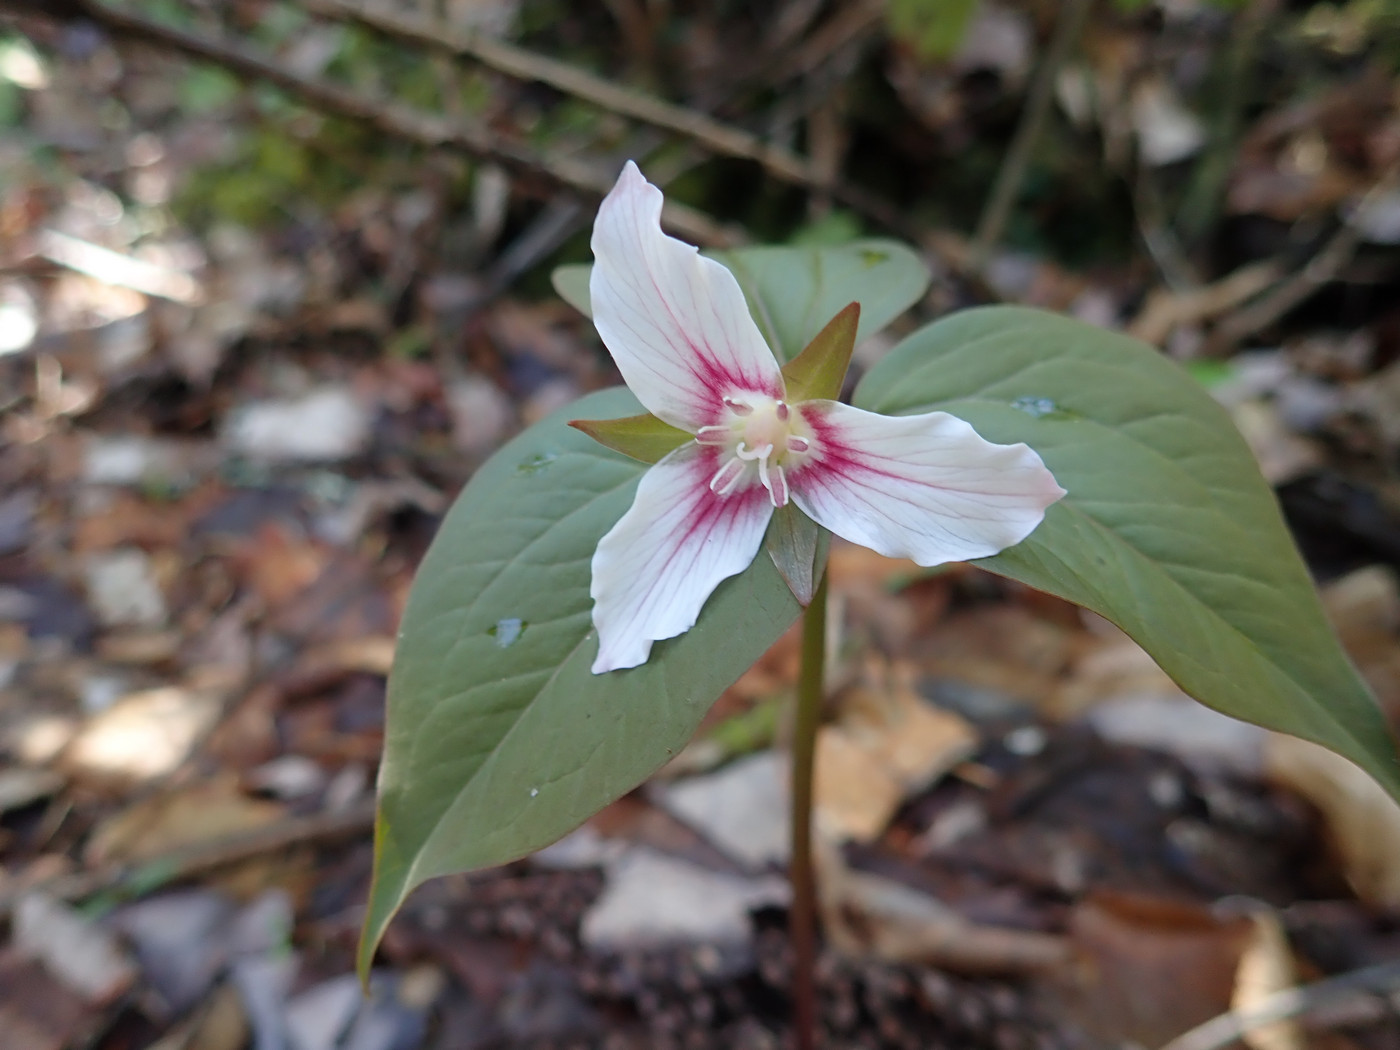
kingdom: Plantae
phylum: Tracheophyta
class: Liliopsida
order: Liliales
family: Melanthiaceae
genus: Trillium
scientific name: Trillium undulatum
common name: Paint trillium
